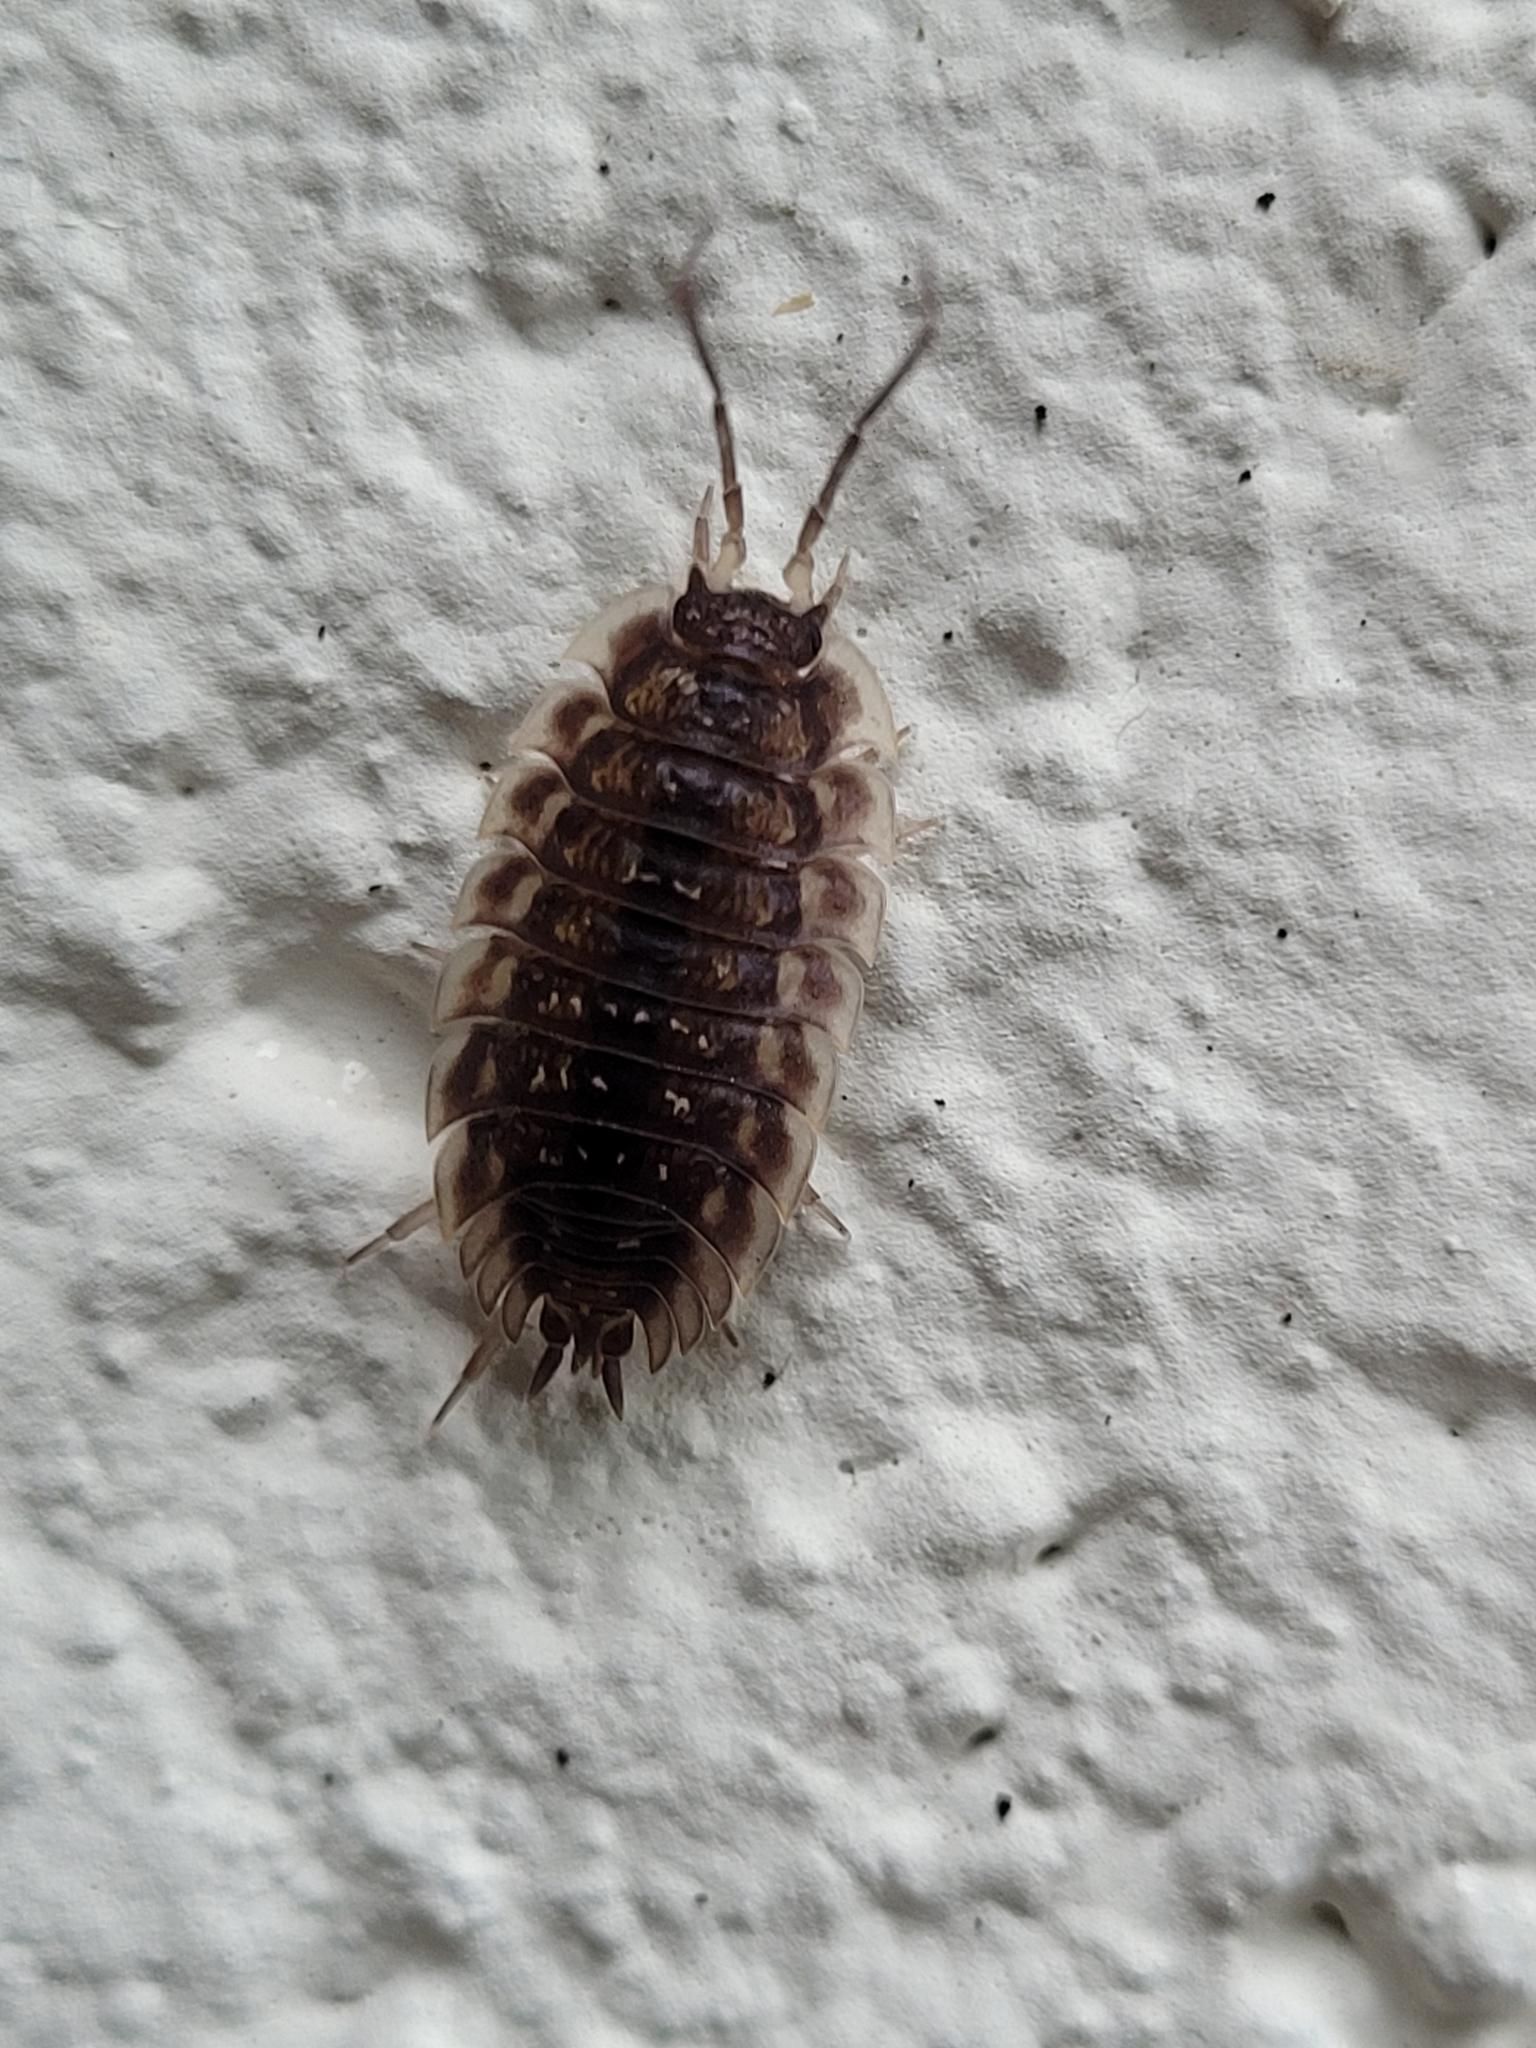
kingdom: Animalia
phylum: Arthropoda
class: Malacostraca
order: Isopoda
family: Oniscidae
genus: Oniscus
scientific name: Oniscus asellus
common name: Common shiny woodlouse
